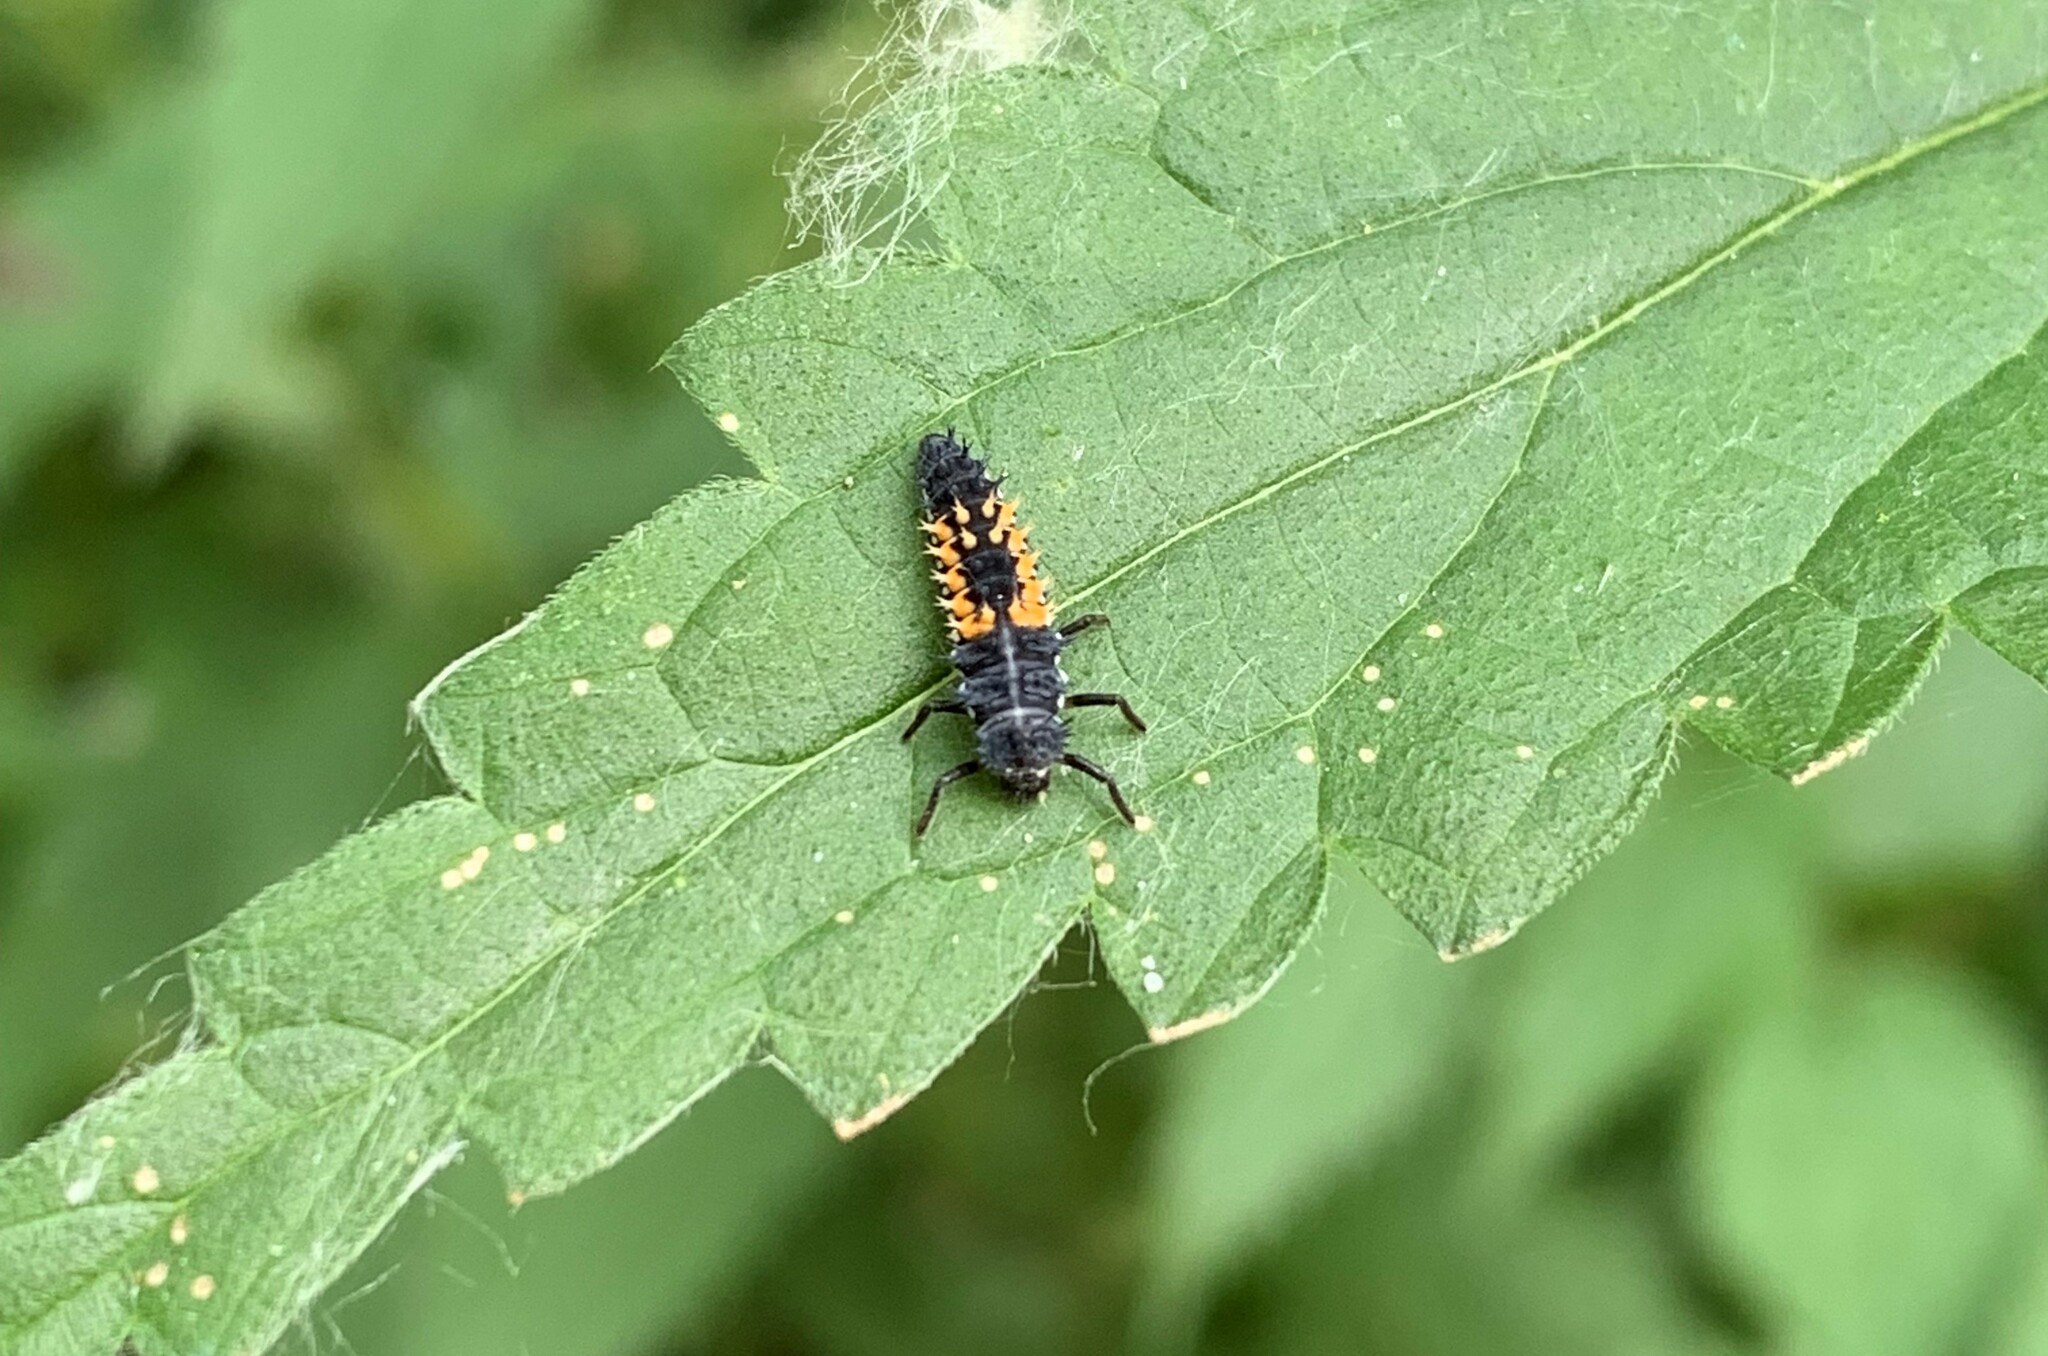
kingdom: Animalia
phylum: Arthropoda
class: Insecta
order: Coleoptera
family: Coccinellidae
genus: Harmonia
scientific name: Harmonia axyridis
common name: Harlequin ladybird
